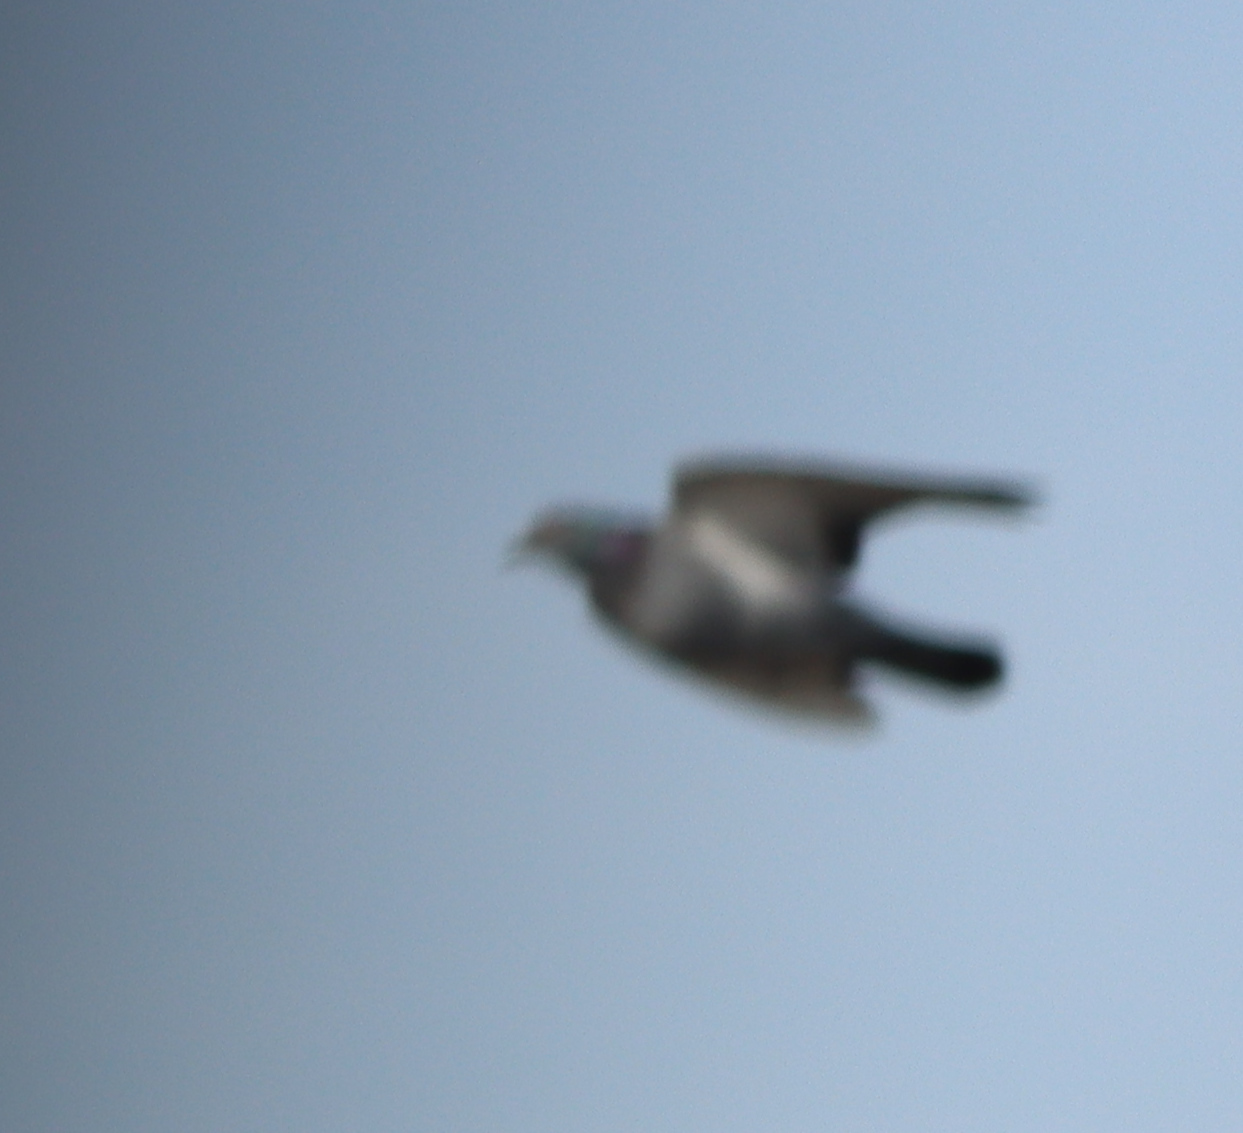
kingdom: Animalia
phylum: Chordata
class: Aves
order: Columbiformes
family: Columbidae
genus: Columba
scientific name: Columba livia
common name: Rock pigeon
